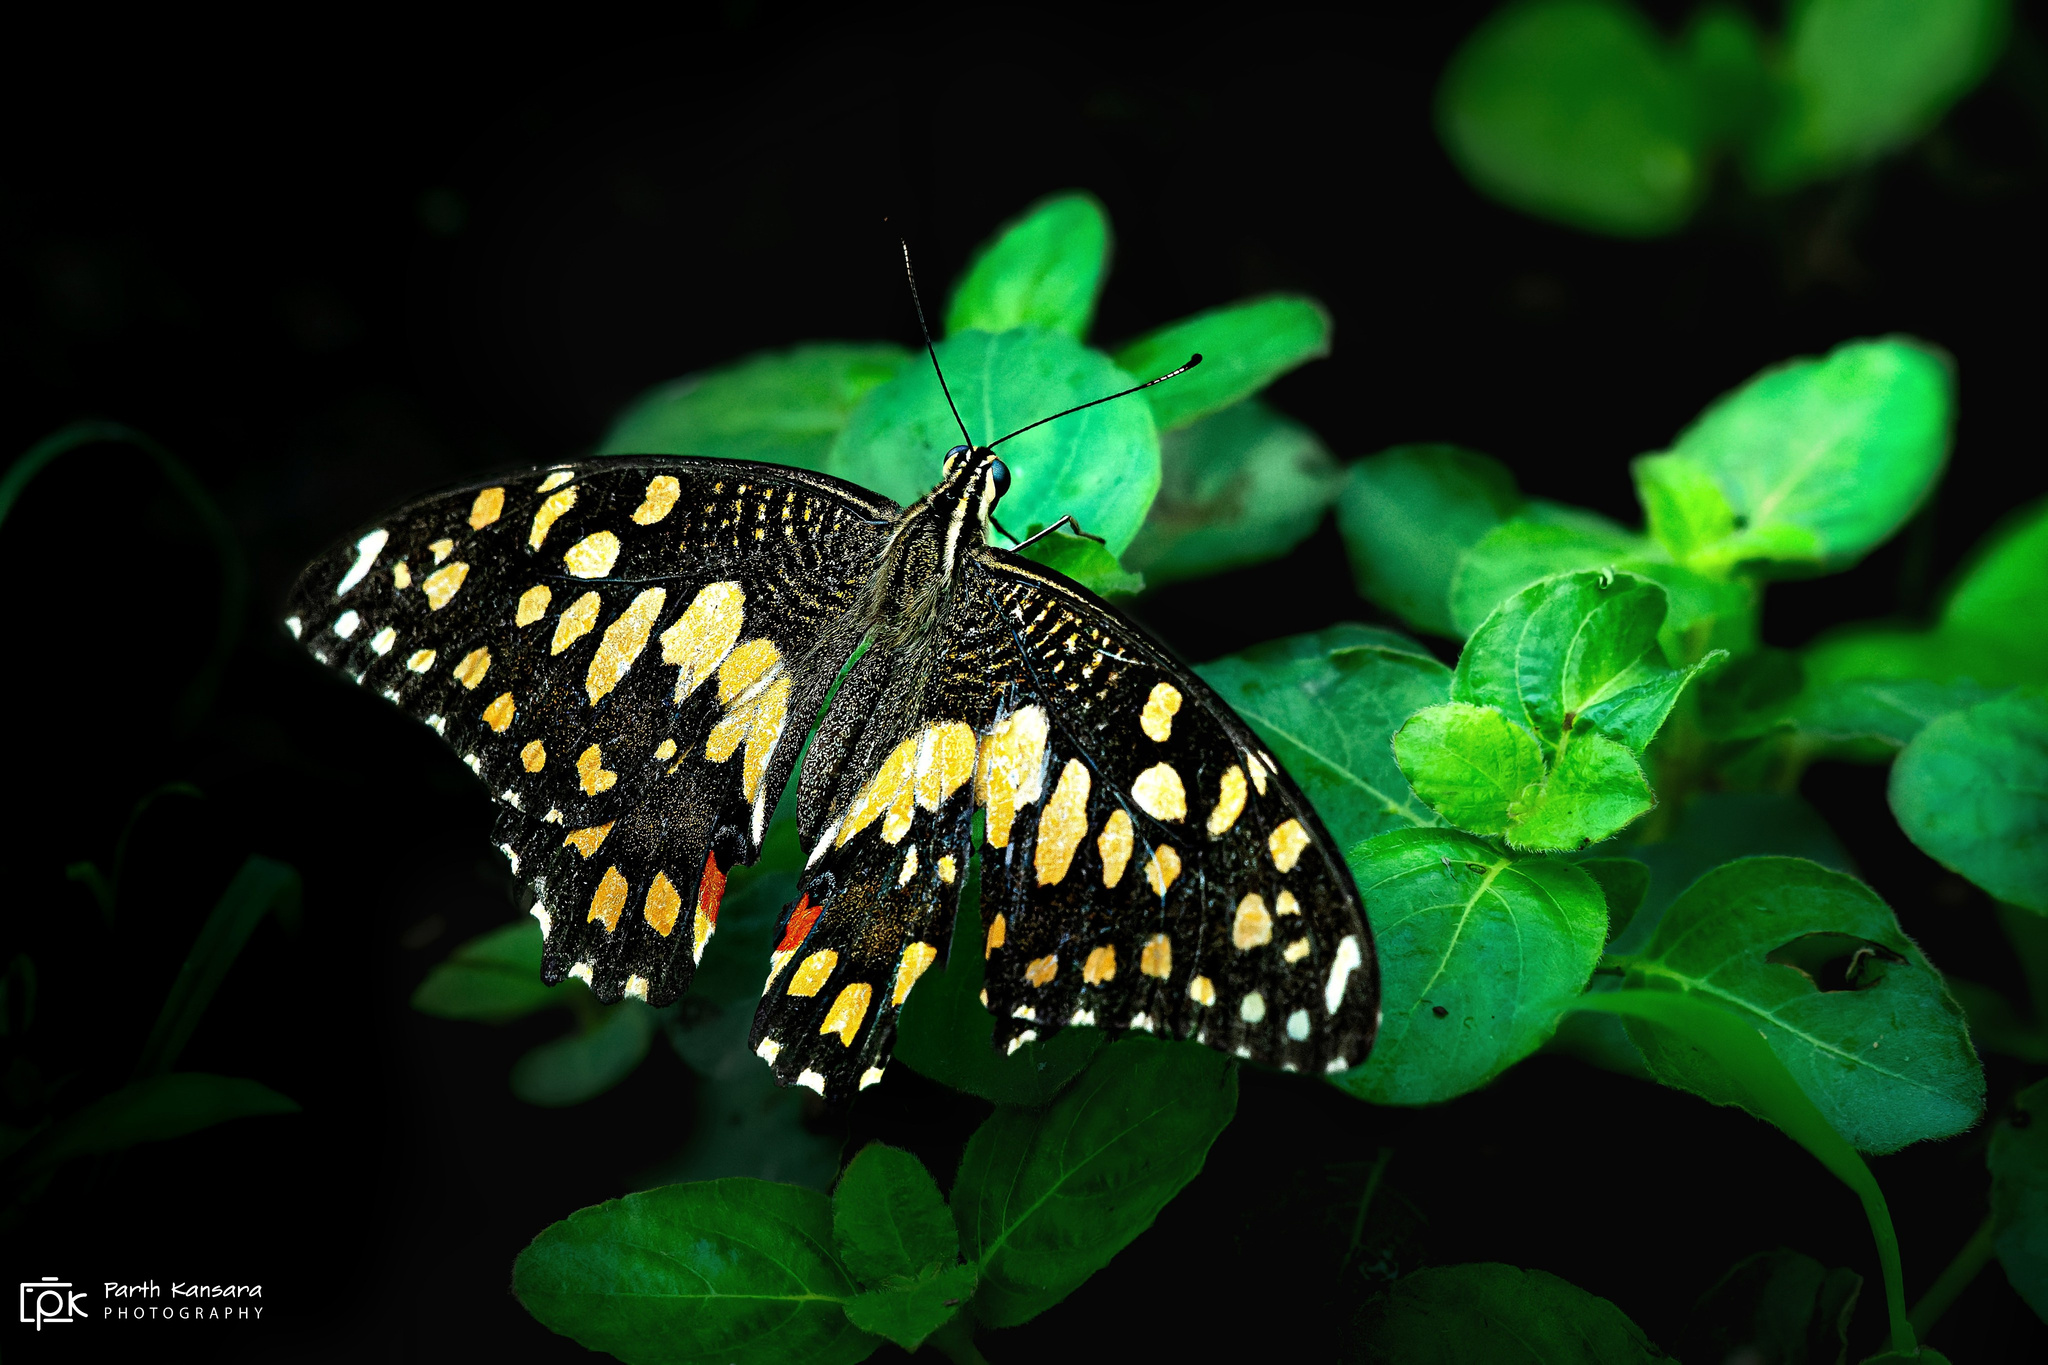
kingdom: Animalia
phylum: Arthropoda
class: Insecta
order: Lepidoptera
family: Papilionidae
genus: Papilio
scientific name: Papilio demoleus
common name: Lime butterfly
